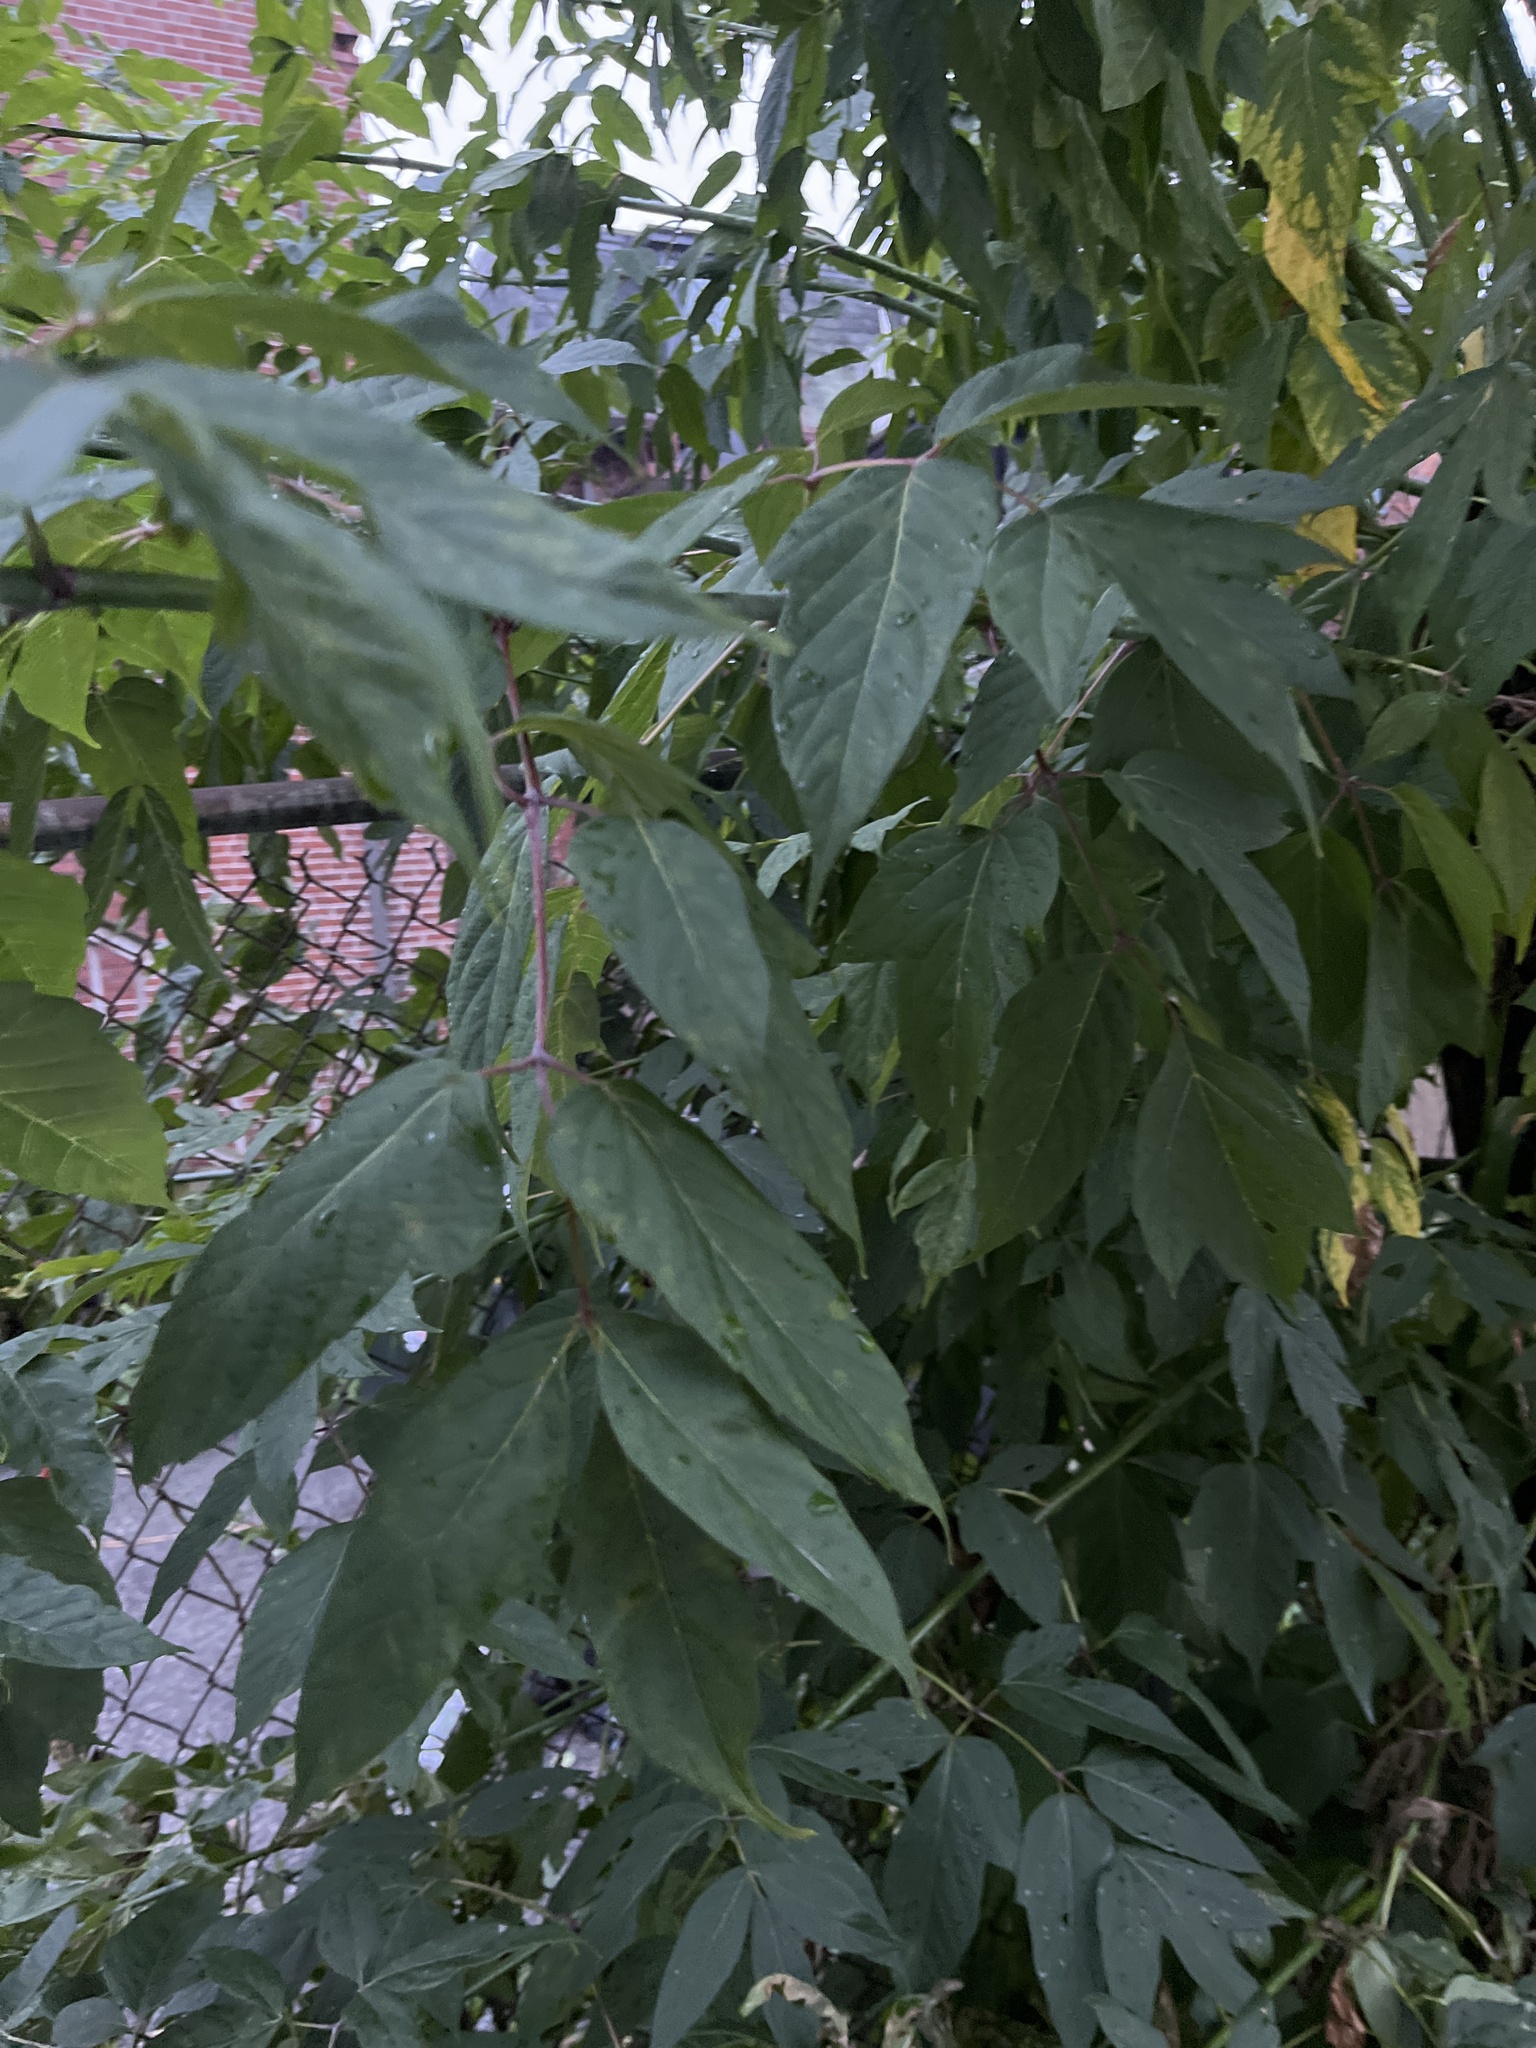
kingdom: Plantae
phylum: Tracheophyta
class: Magnoliopsida
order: Sapindales
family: Sapindaceae
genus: Acer
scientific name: Acer negundo
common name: Ashleaf maple
